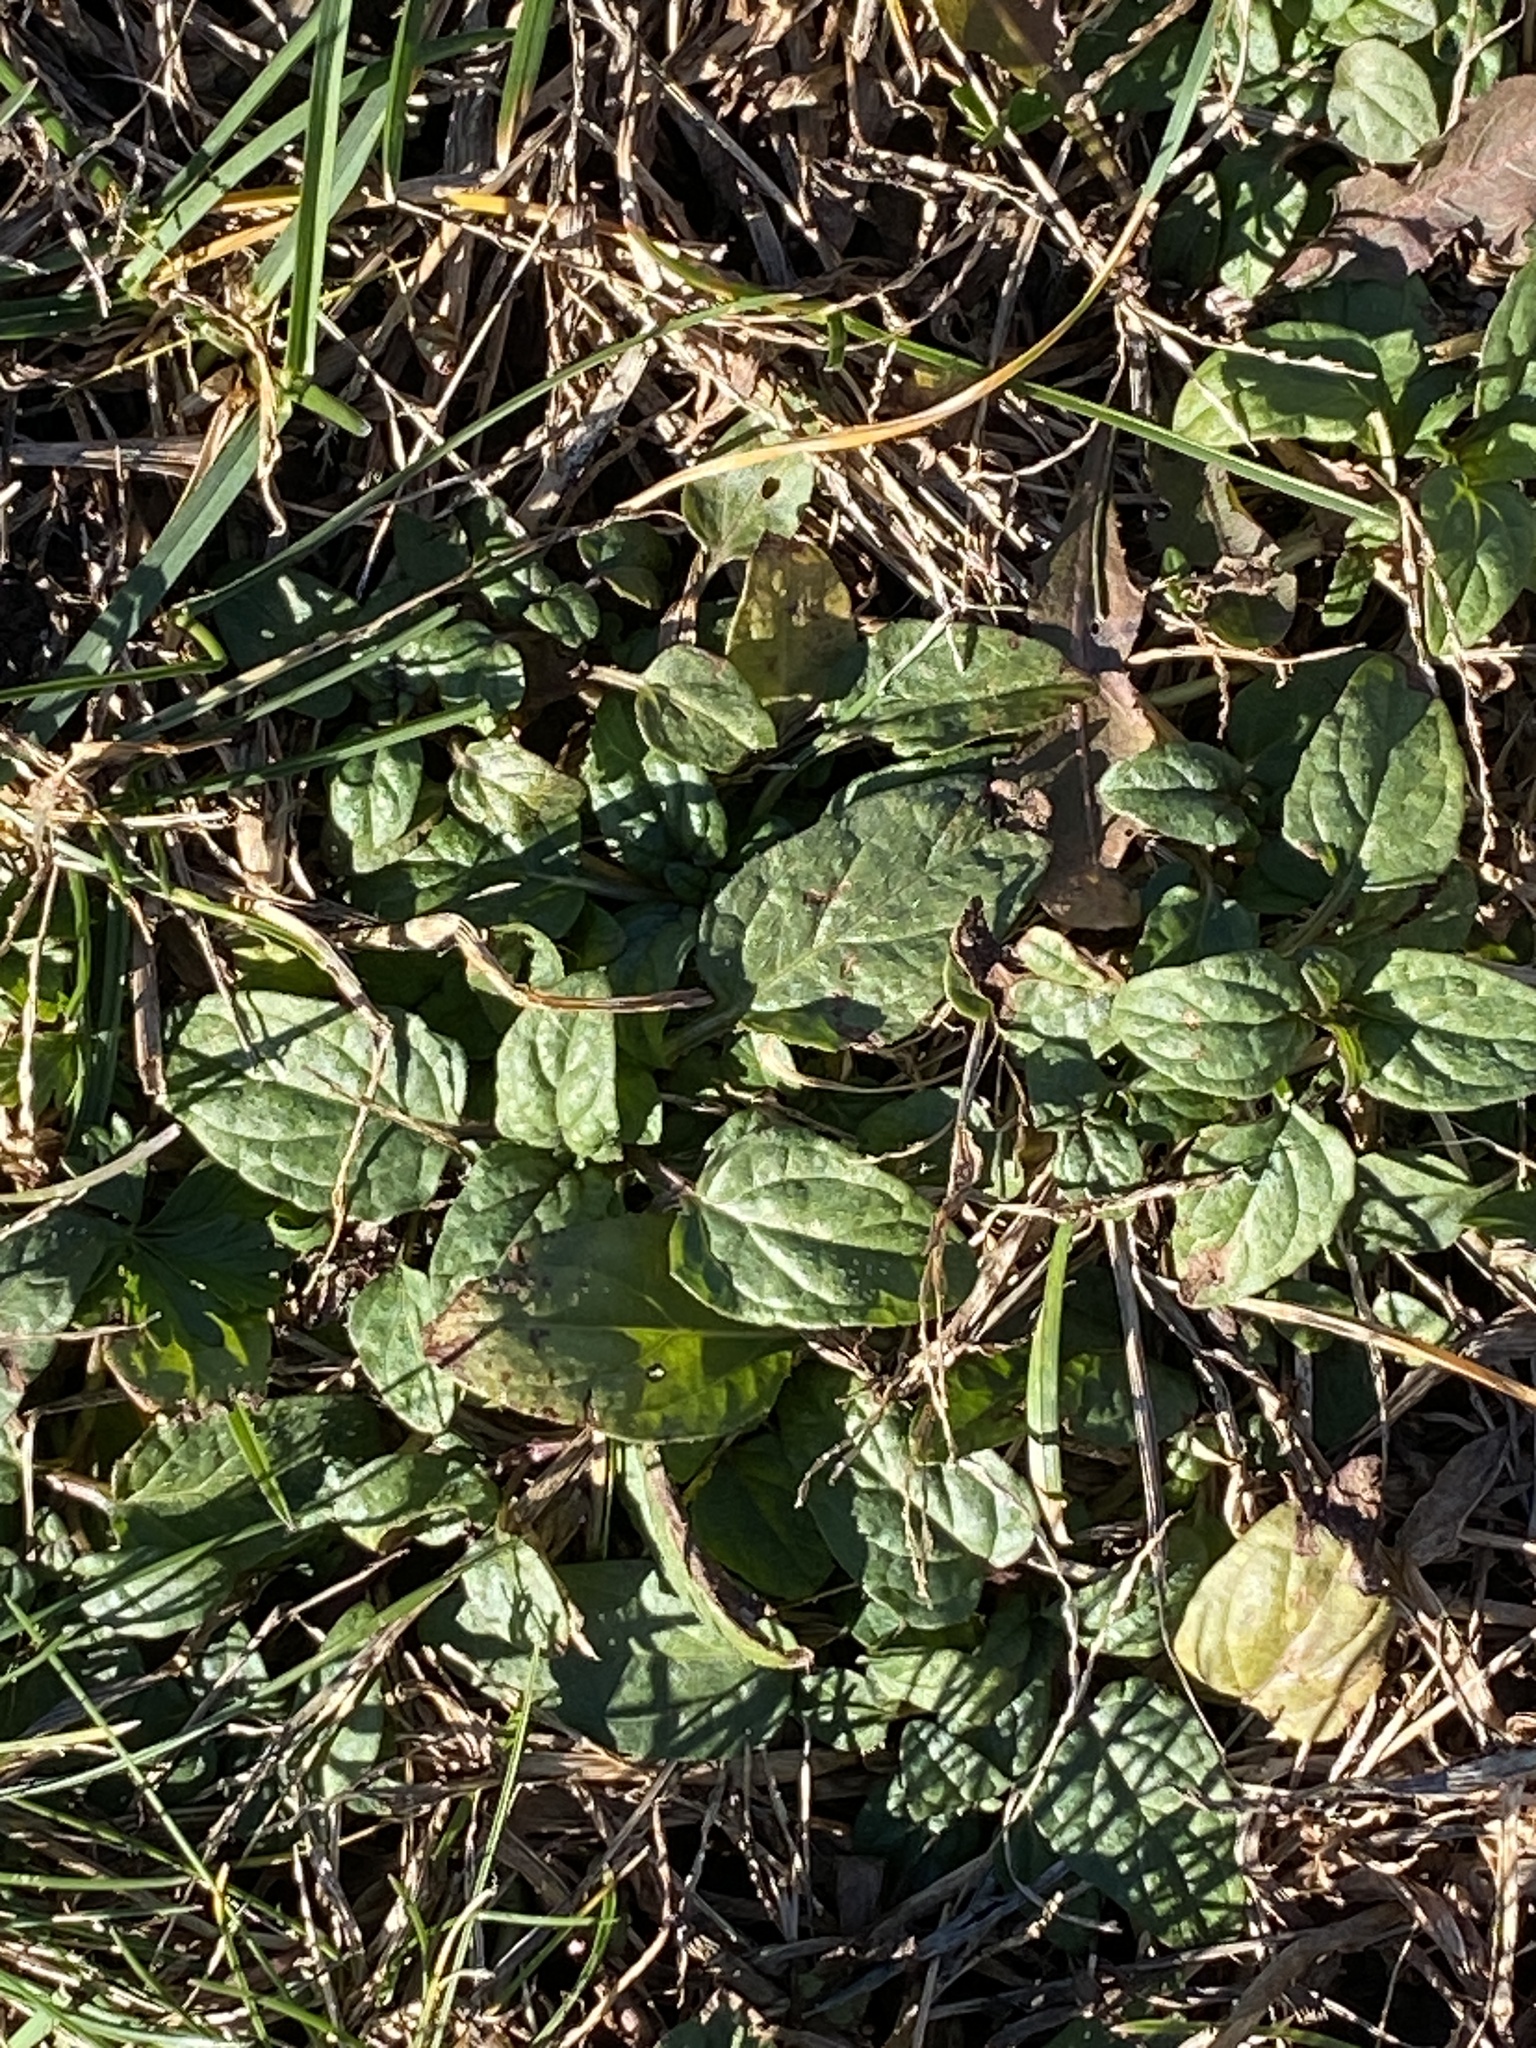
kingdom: Plantae
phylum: Tracheophyta
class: Magnoliopsida
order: Lamiales
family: Lamiaceae
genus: Prunella
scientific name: Prunella vulgaris
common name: Heal-all
